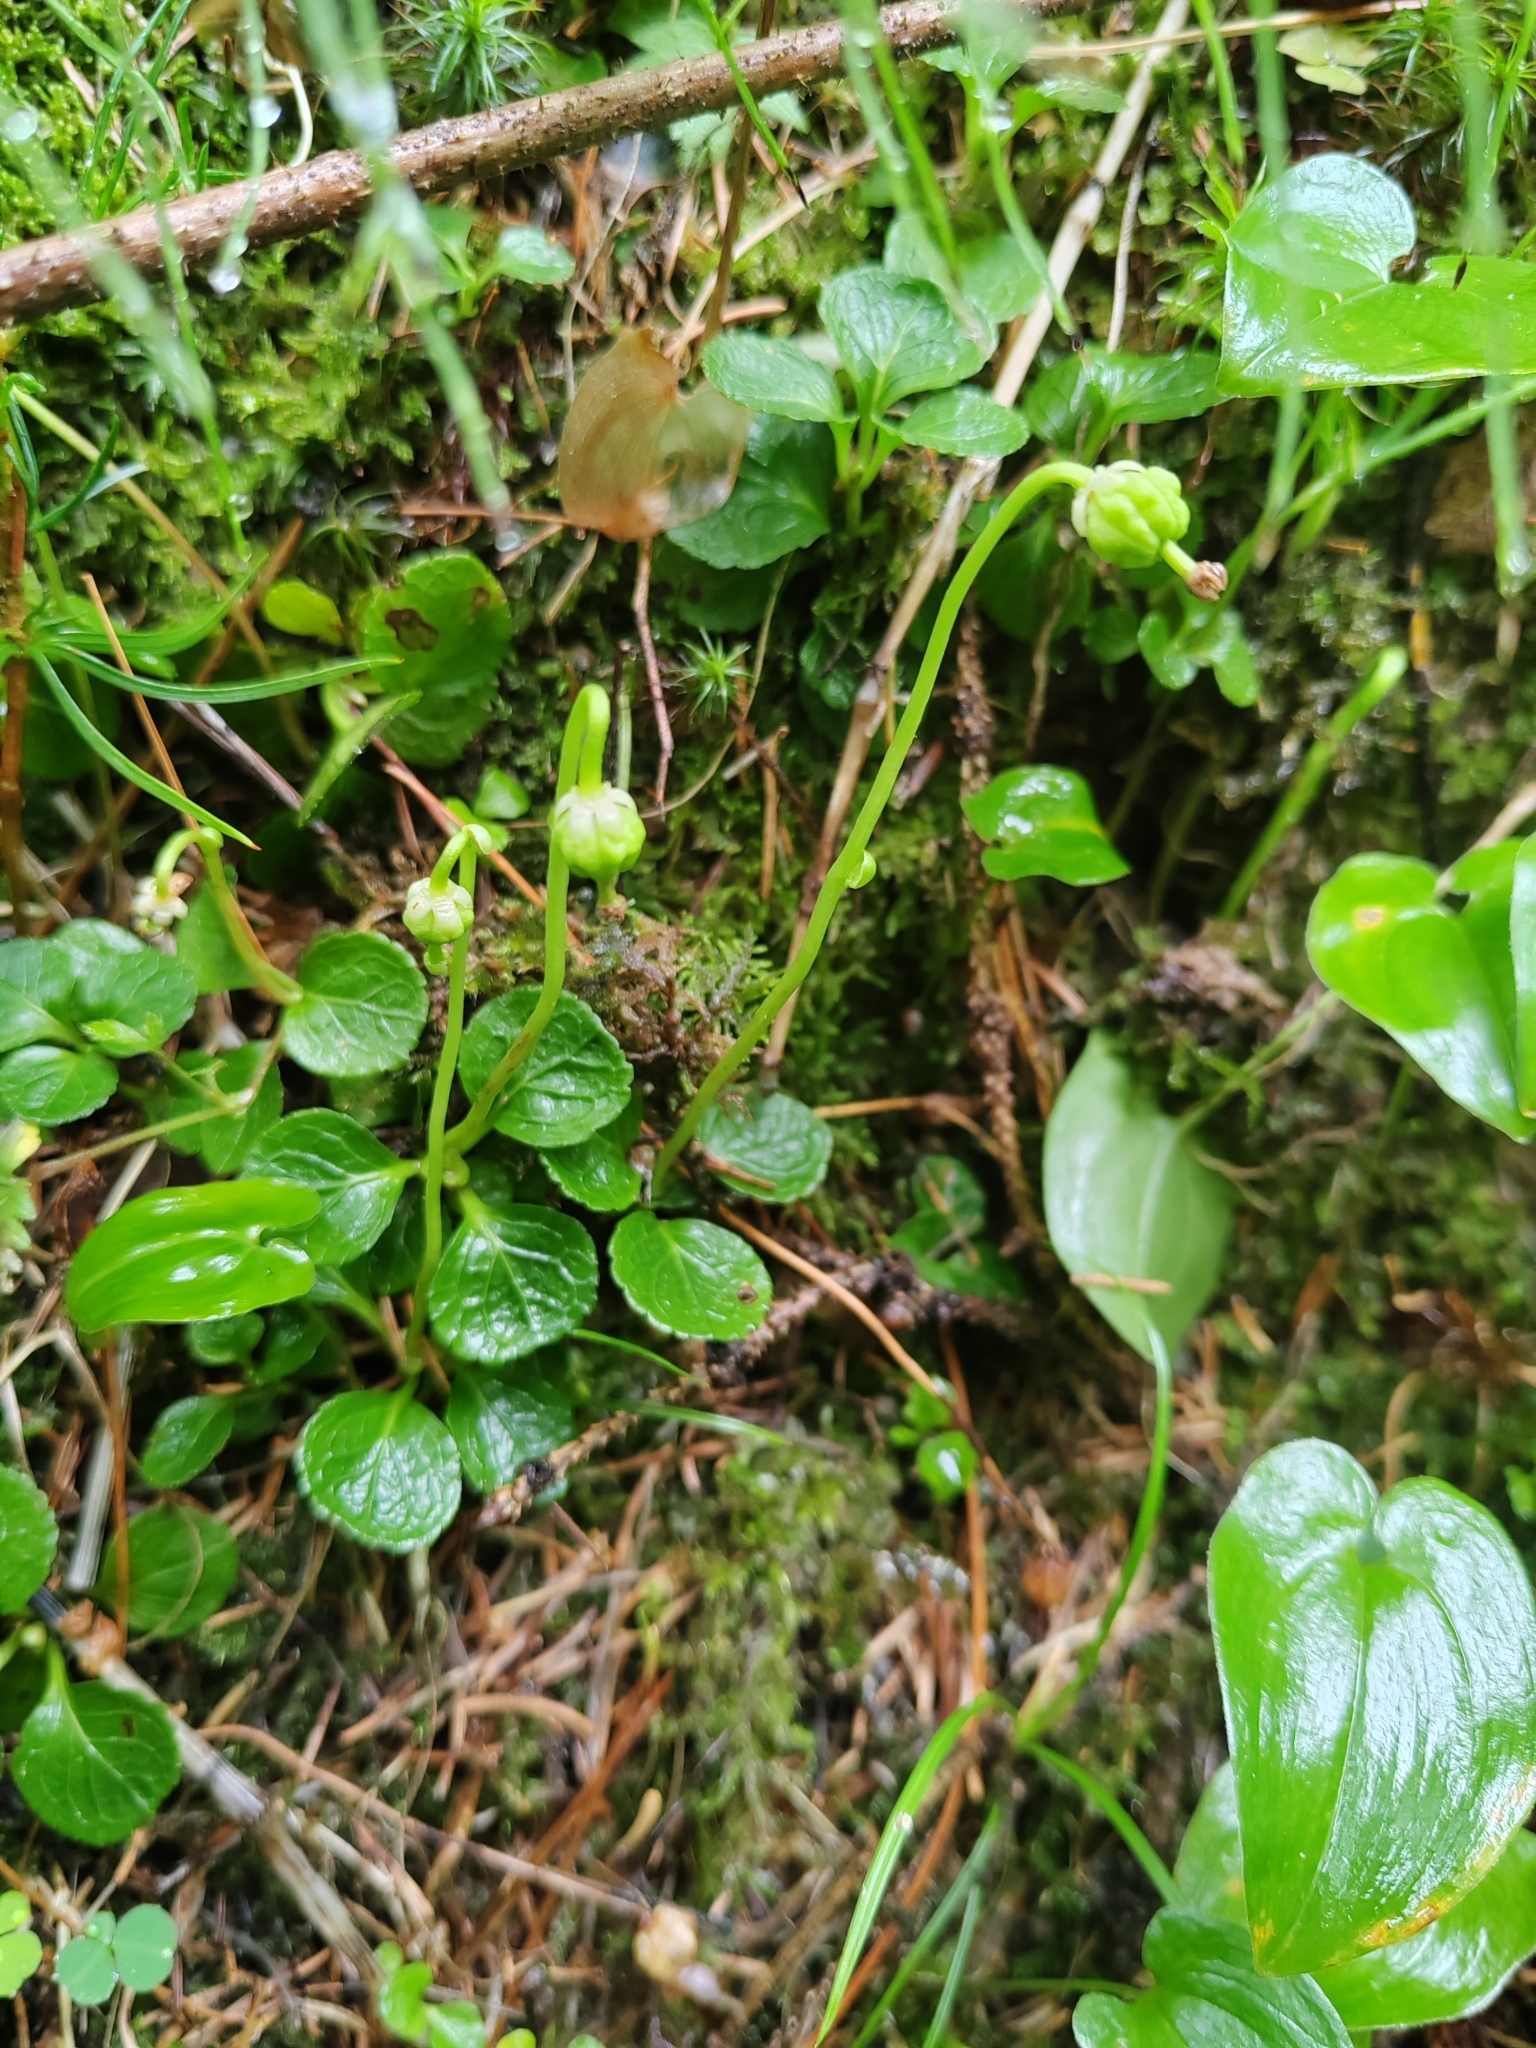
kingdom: Plantae
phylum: Tracheophyta
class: Magnoliopsida
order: Ericales
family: Ericaceae
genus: Moneses
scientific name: Moneses uniflora
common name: One-flowered wintergreen
